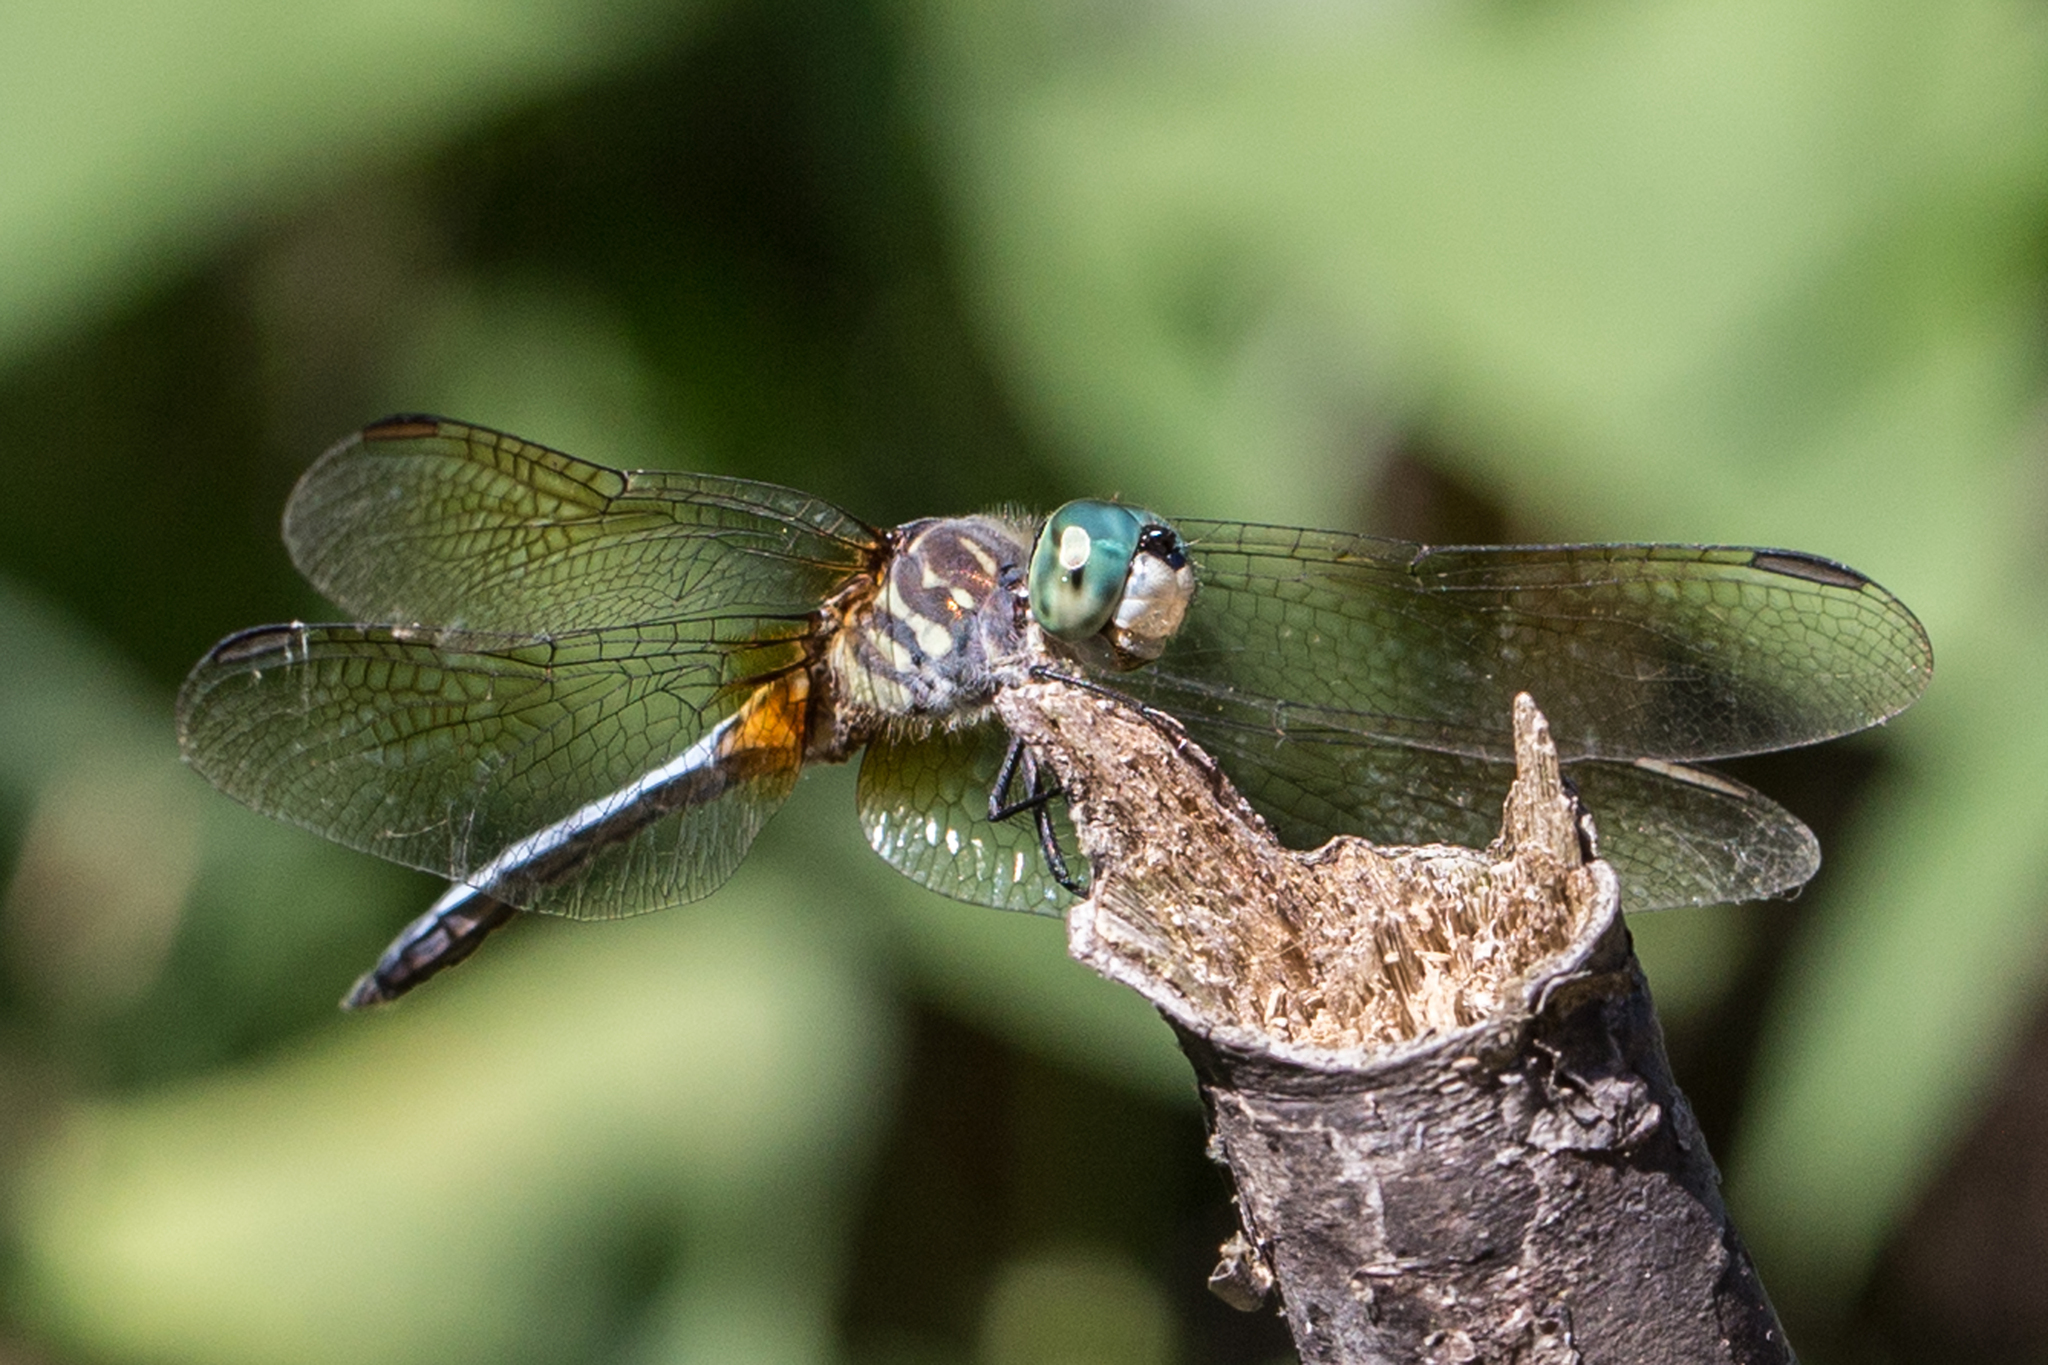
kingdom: Animalia
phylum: Arthropoda
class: Insecta
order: Odonata
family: Libellulidae
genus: Pachydiplax
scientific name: Pachydiplax longipennis
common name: Blue dasher
